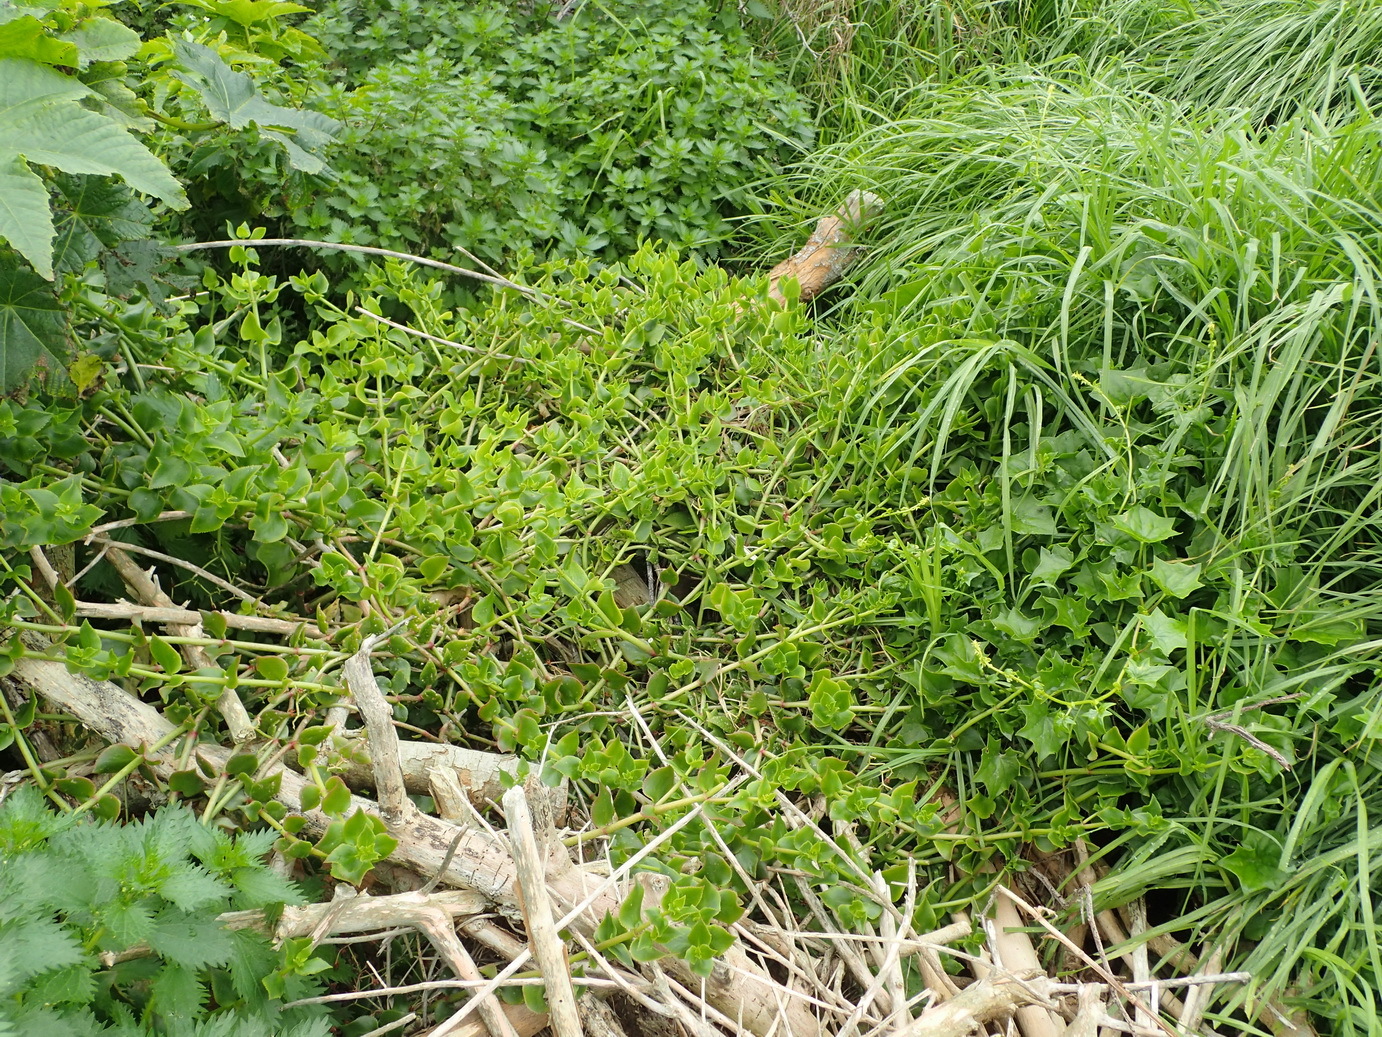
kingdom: Plantae
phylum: Tracheophyta
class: Magnoliopsida
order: Saxifragales
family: Crassulaceae
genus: Crassula
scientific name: Crassula sarmentosa
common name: Jade-tree
